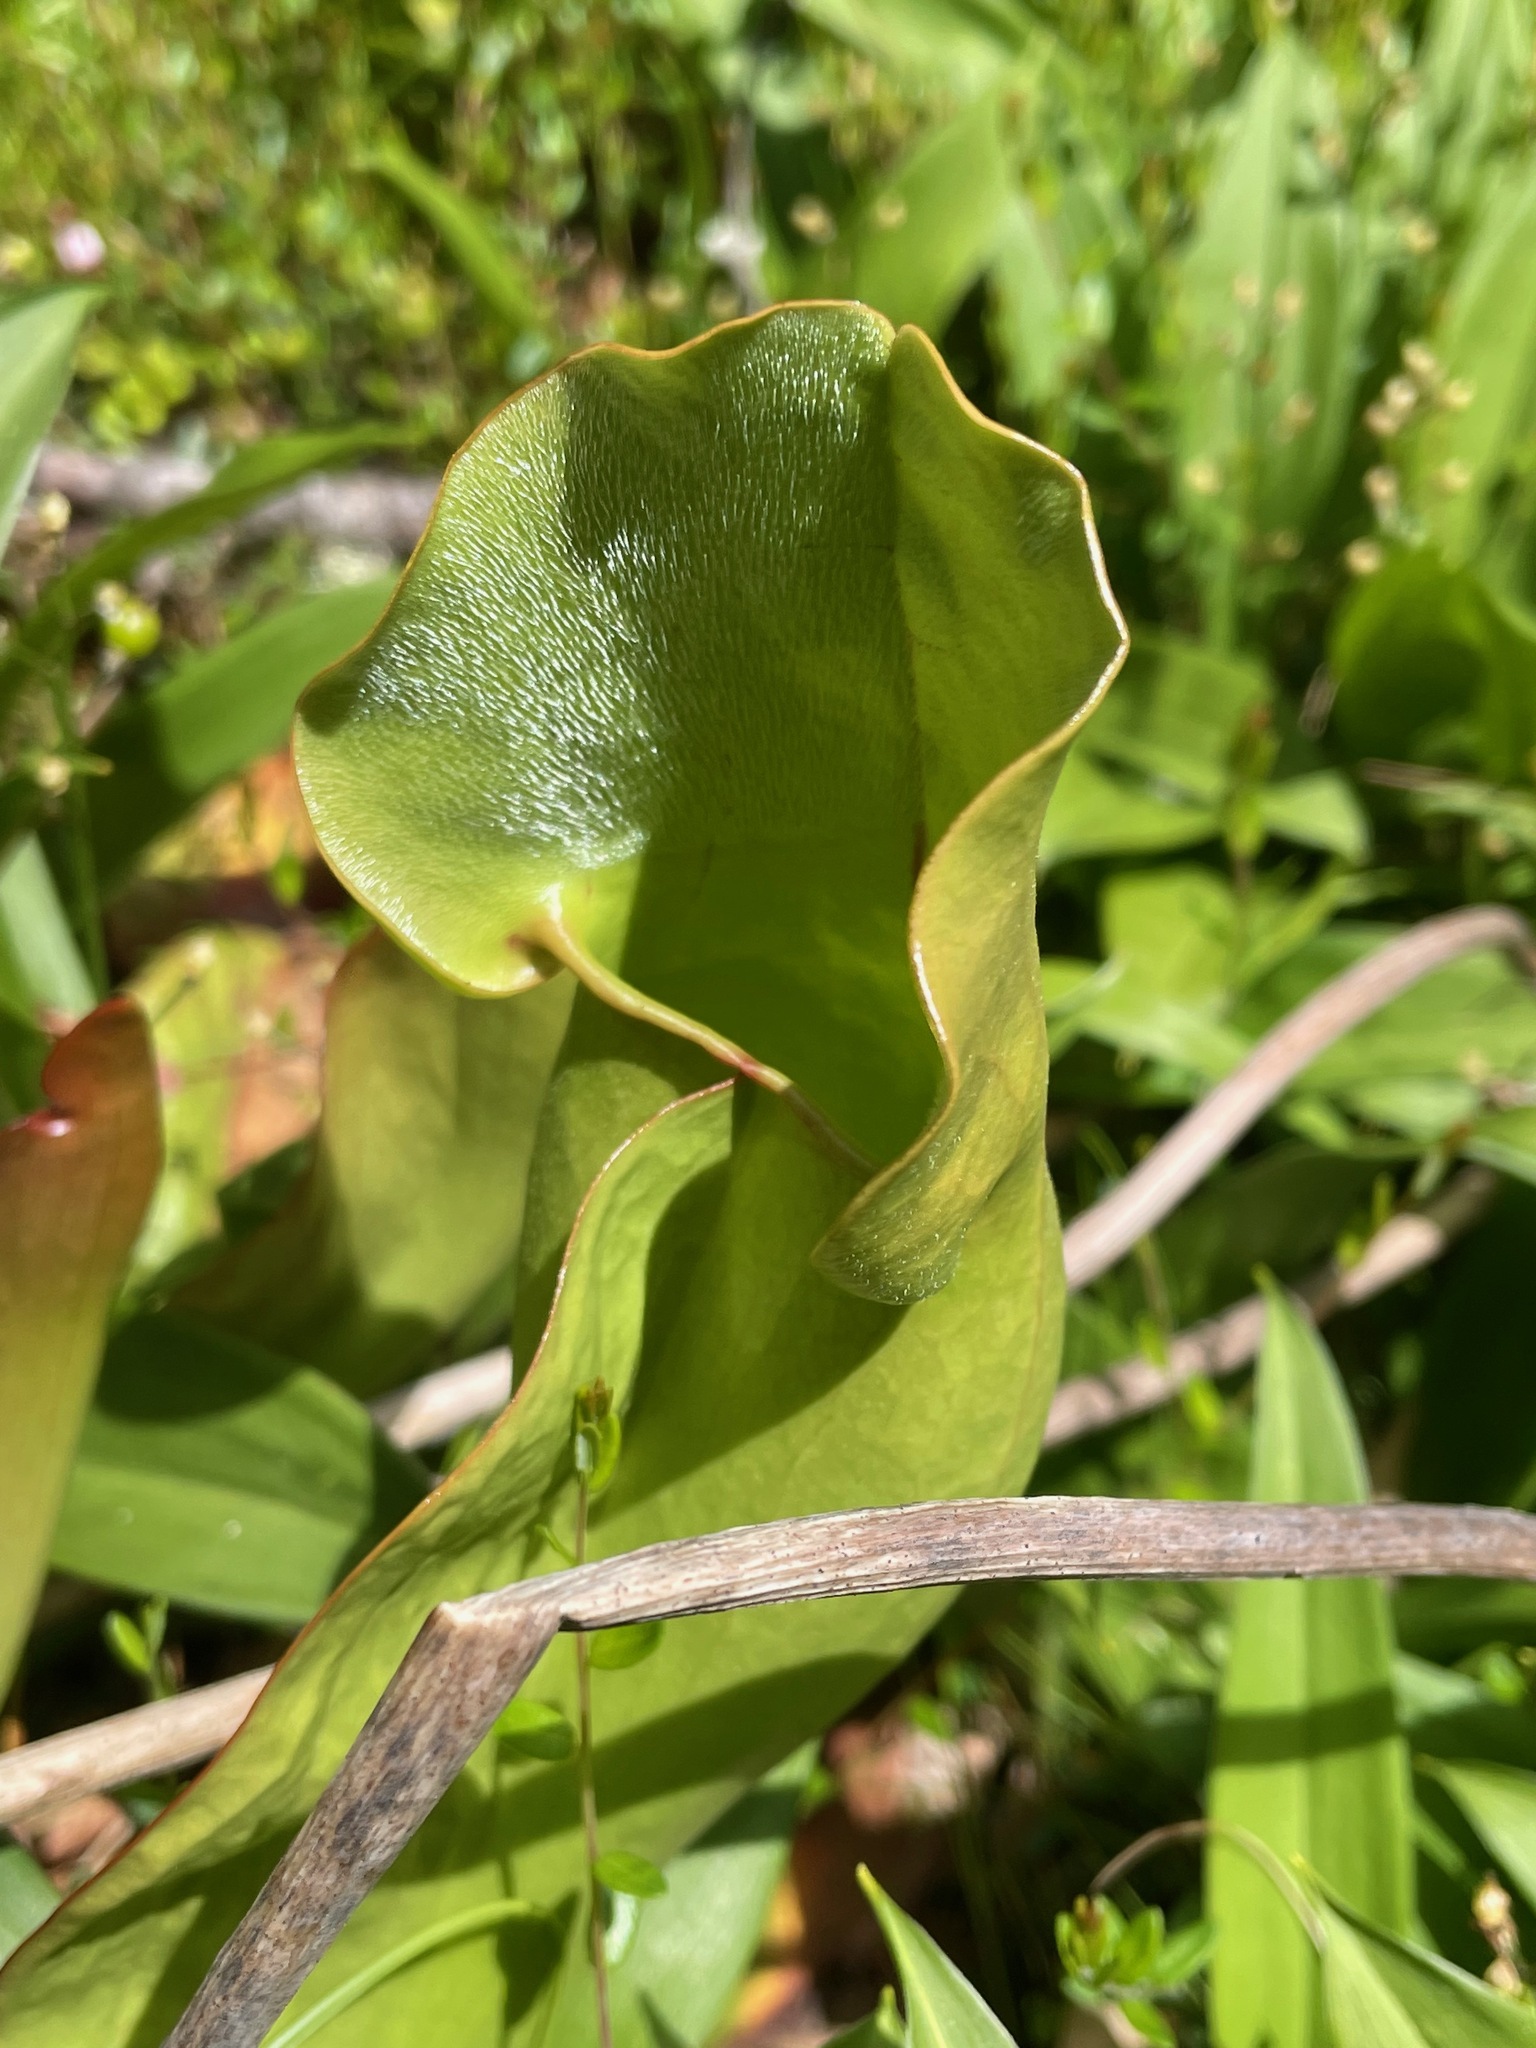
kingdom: Plantae
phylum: Tracheophyta
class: Magnoliopsida
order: Ericales
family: Sarraceniaceae
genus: Sarracenia
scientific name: Sarracenia purpurea
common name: Pitcherplant
